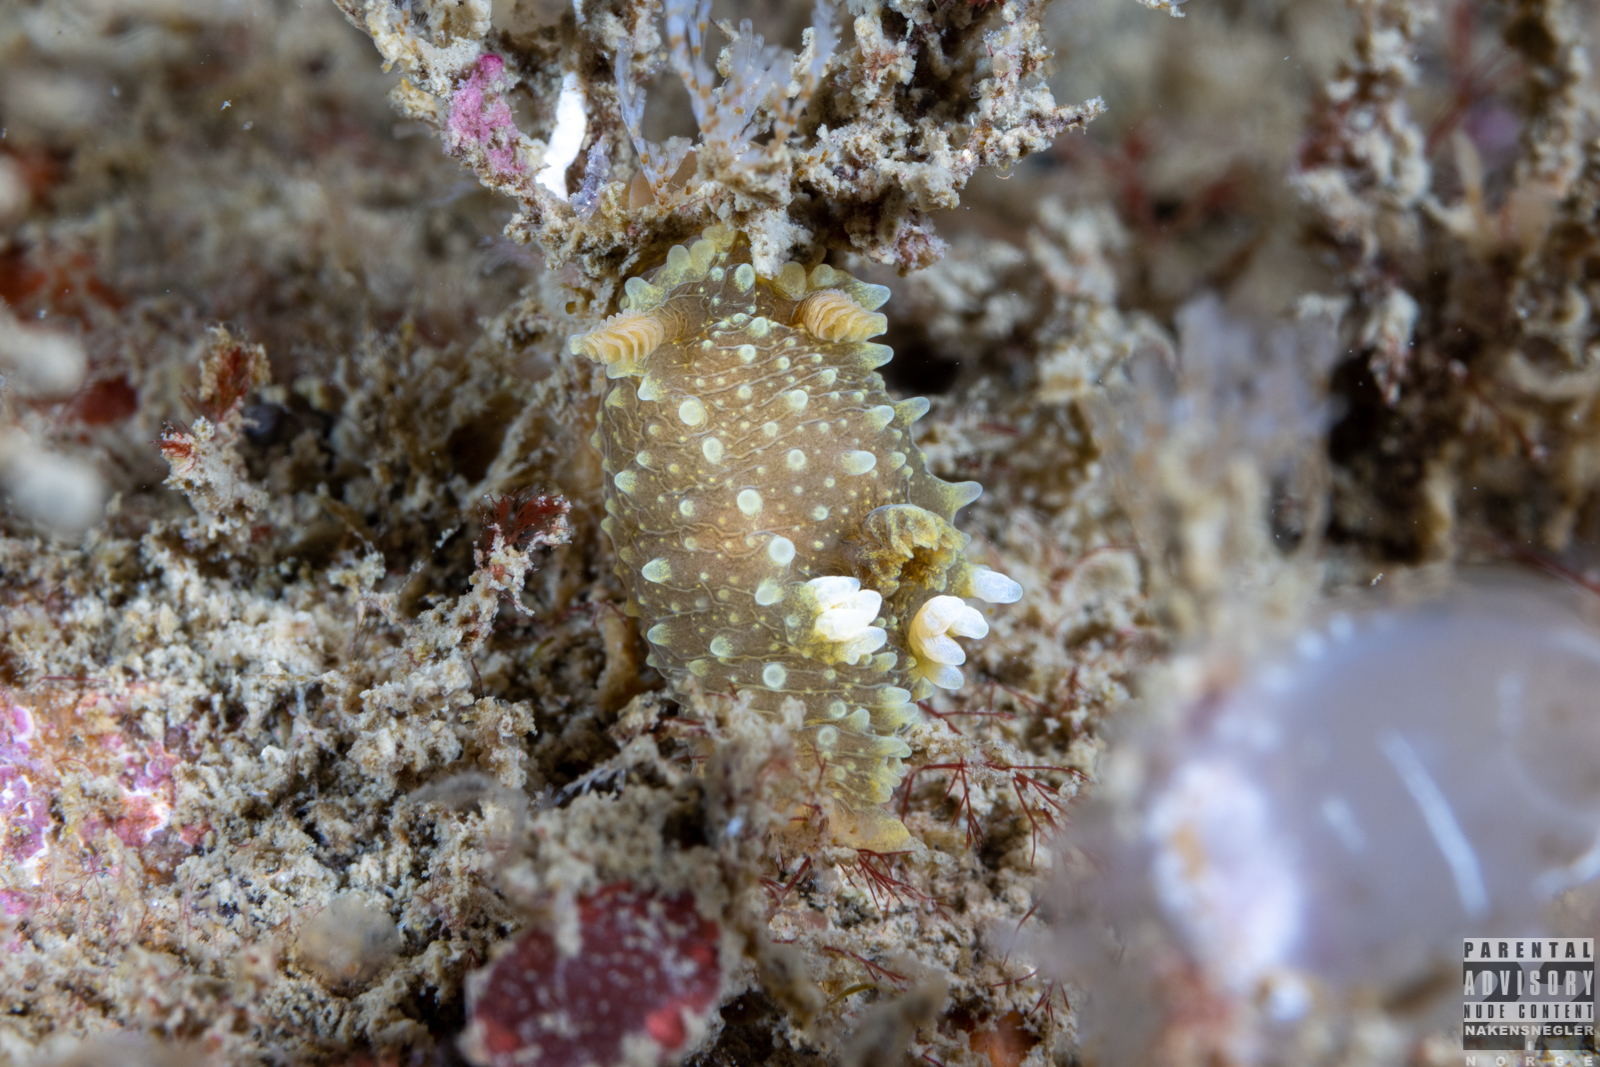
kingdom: Animalia
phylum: Mollusca
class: Gastropoda
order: Nudibranchia
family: Polyceridae
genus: Palio
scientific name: Palio dubia
